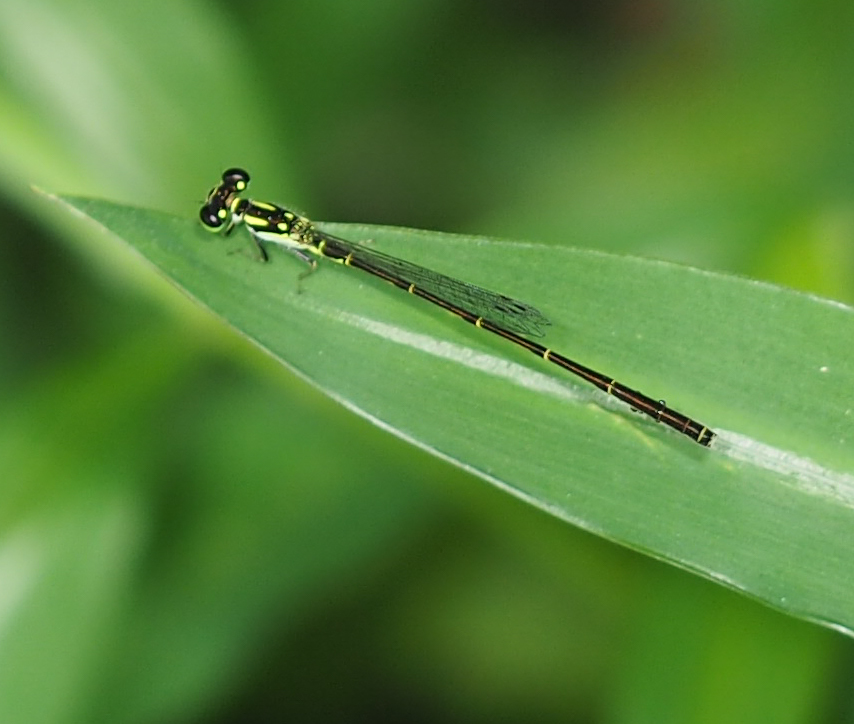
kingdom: Animalia
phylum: Arthropoda
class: Insecta
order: Odonata
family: Coenagrionidae
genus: Ischnura
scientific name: Ischnura posita
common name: Fragile forktail
